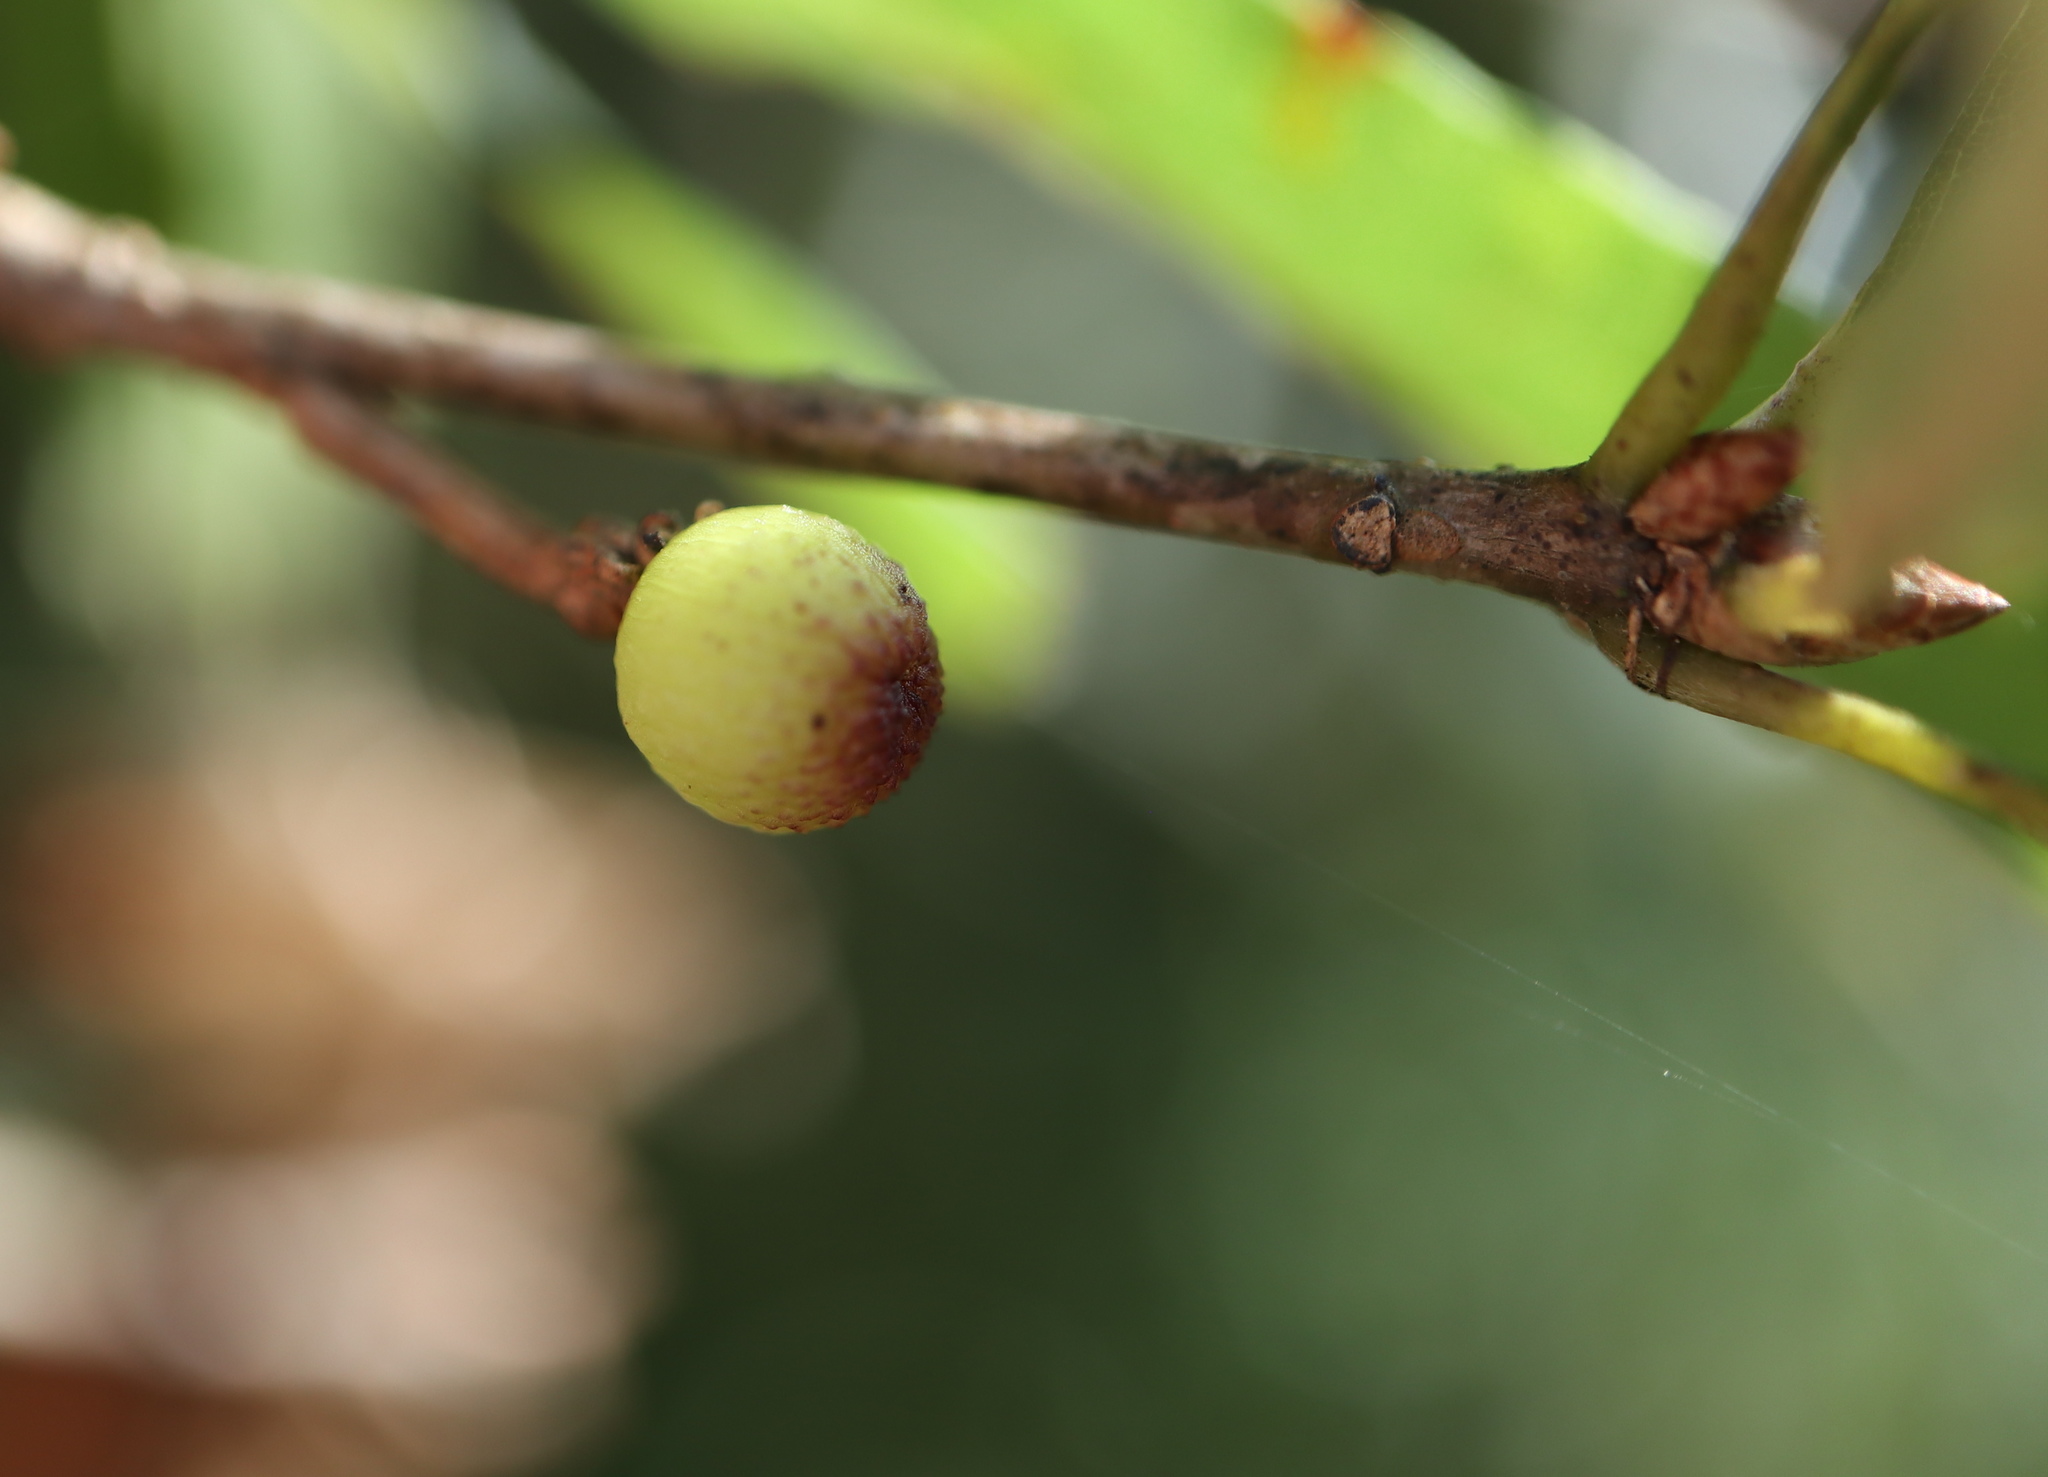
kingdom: Animalia
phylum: Arthropoda
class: Insecta
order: Hymenoptera
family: Cynipidae
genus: Callirhytis
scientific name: Callirhytis
